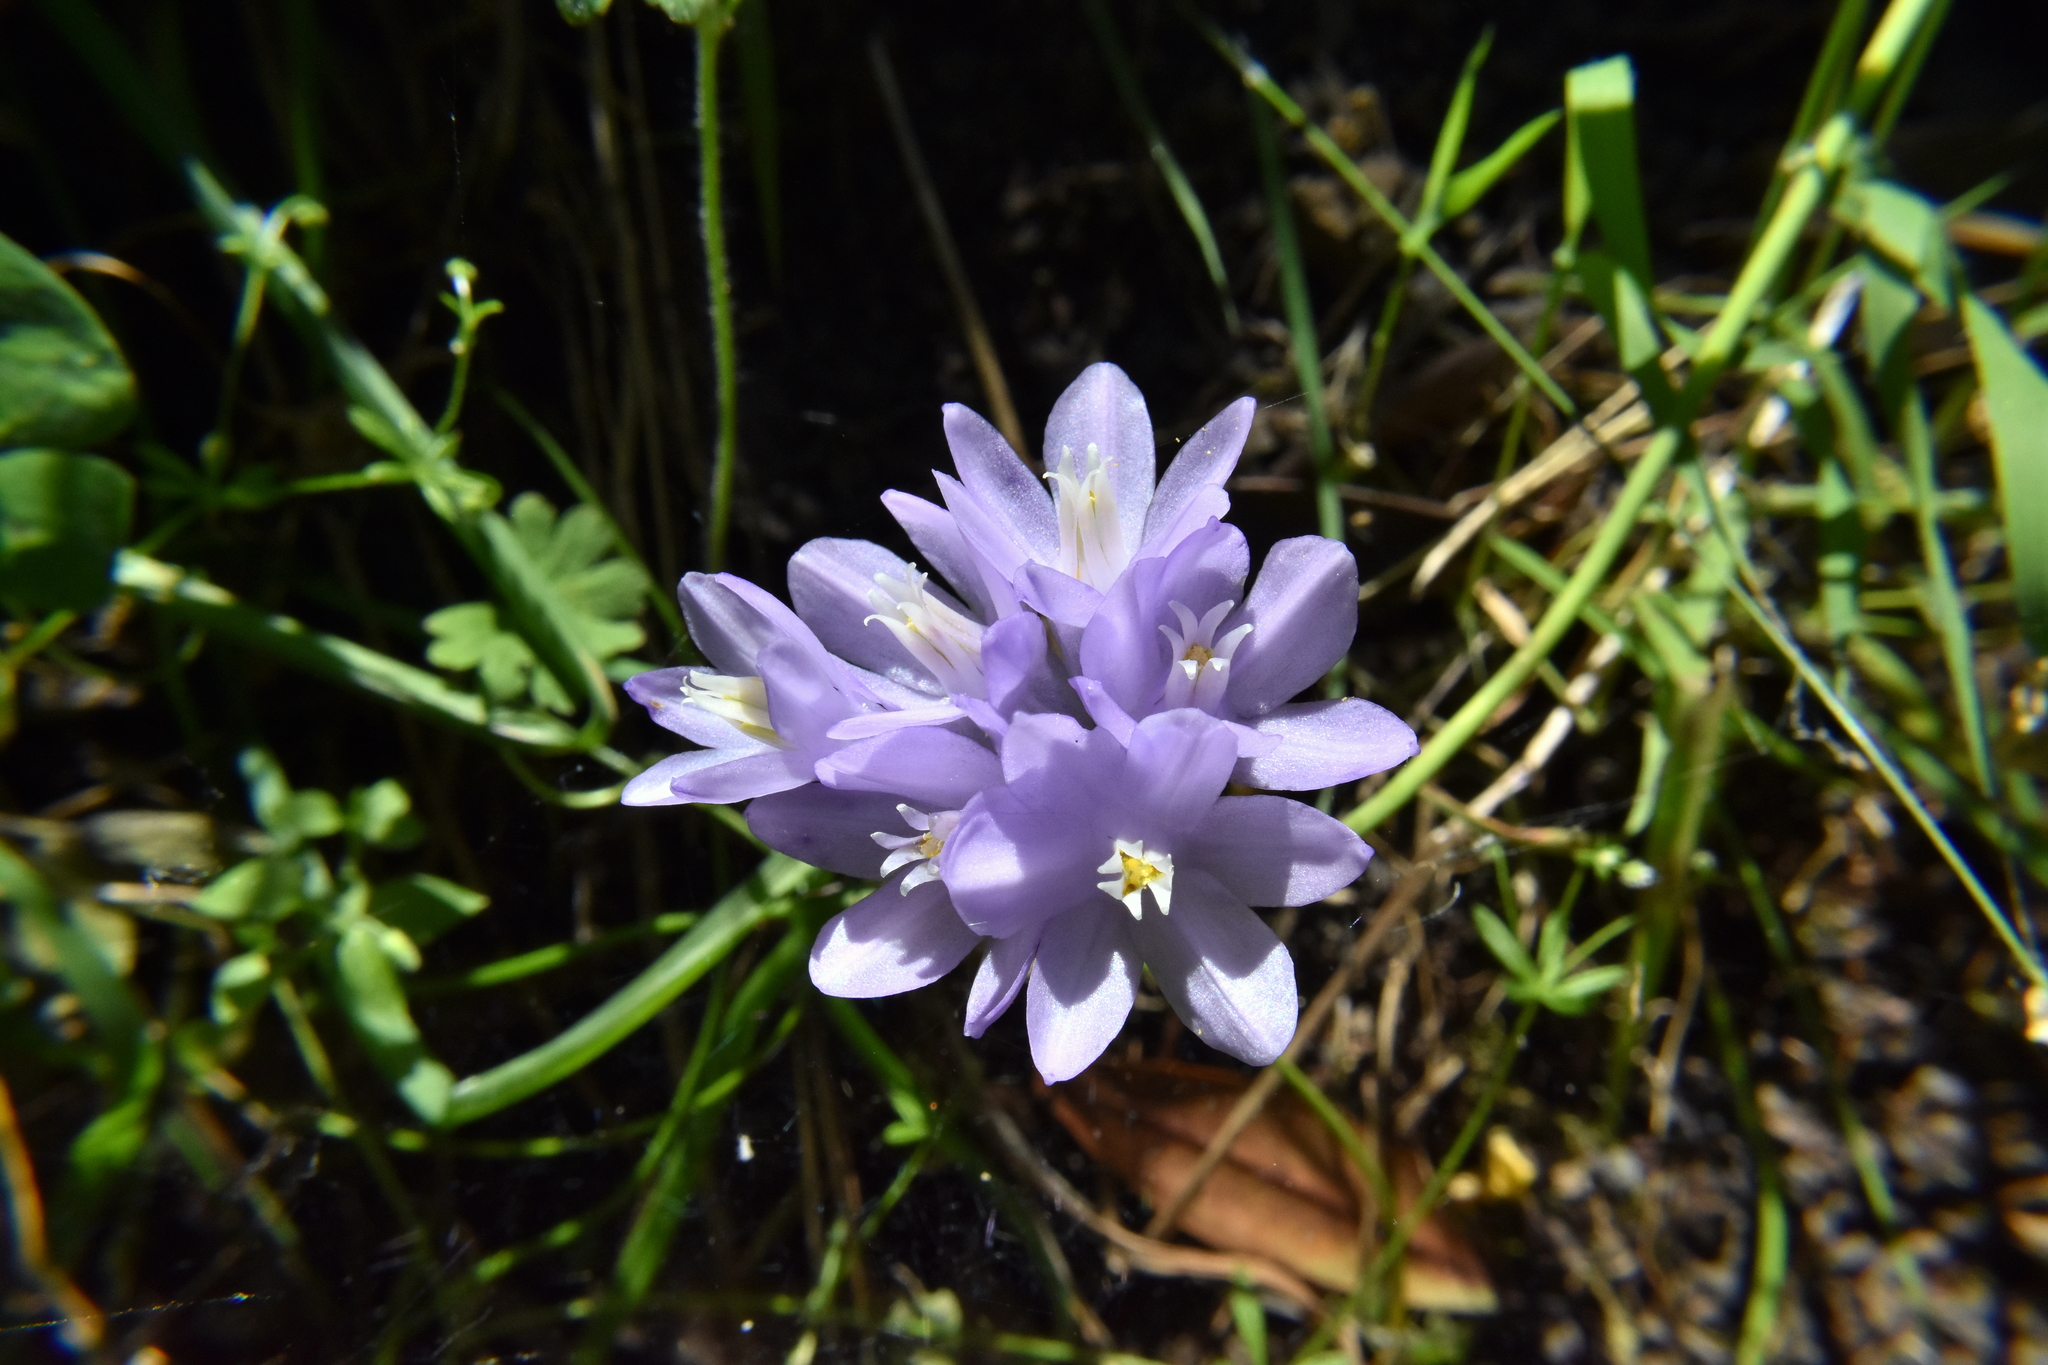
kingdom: Plantae
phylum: Tracheophyta
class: Liliopsida
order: Asparagales
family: Asparagaceae
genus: Dipterostemon
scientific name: Dipterostemon capitatus
